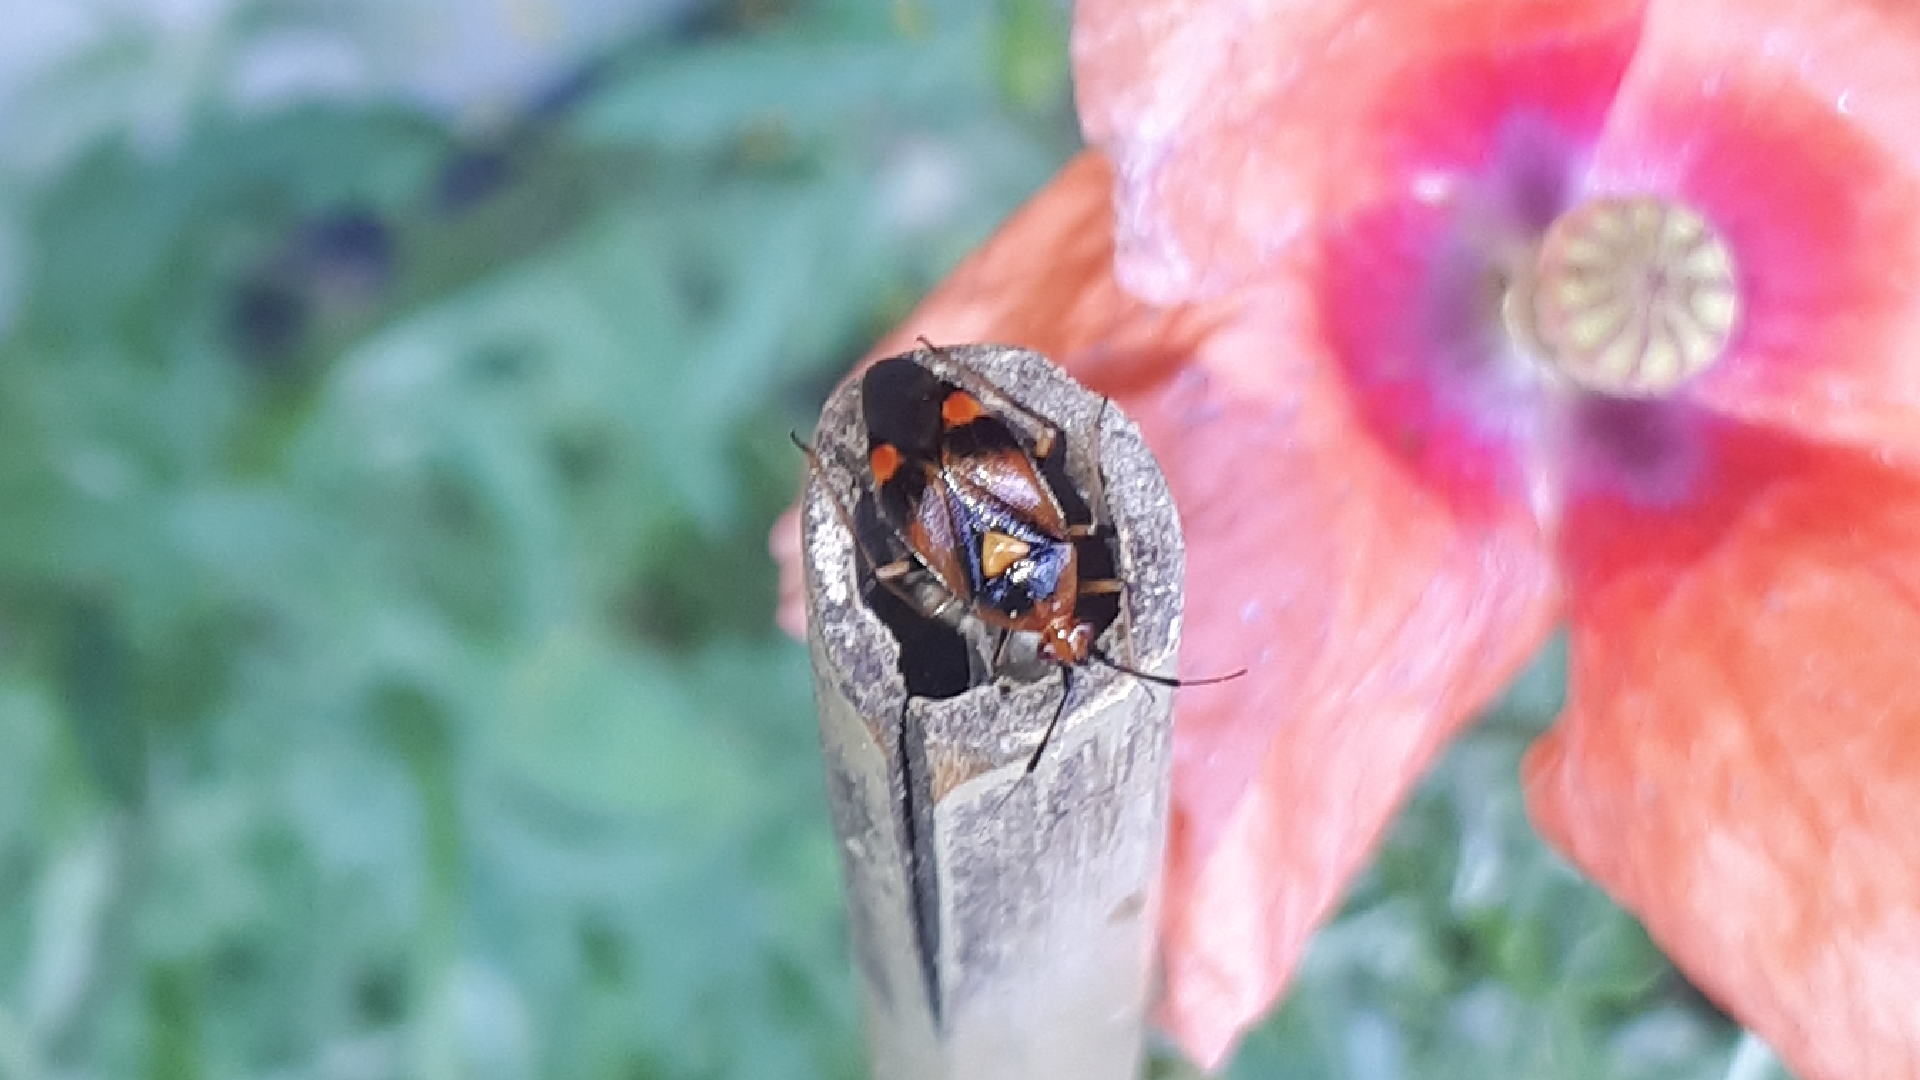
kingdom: Animalia
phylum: Arthropoda
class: Insecta
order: Hemiptera
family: Miridae
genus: Deraeocoris
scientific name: Deraeocoris ruber
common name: Plant bug
